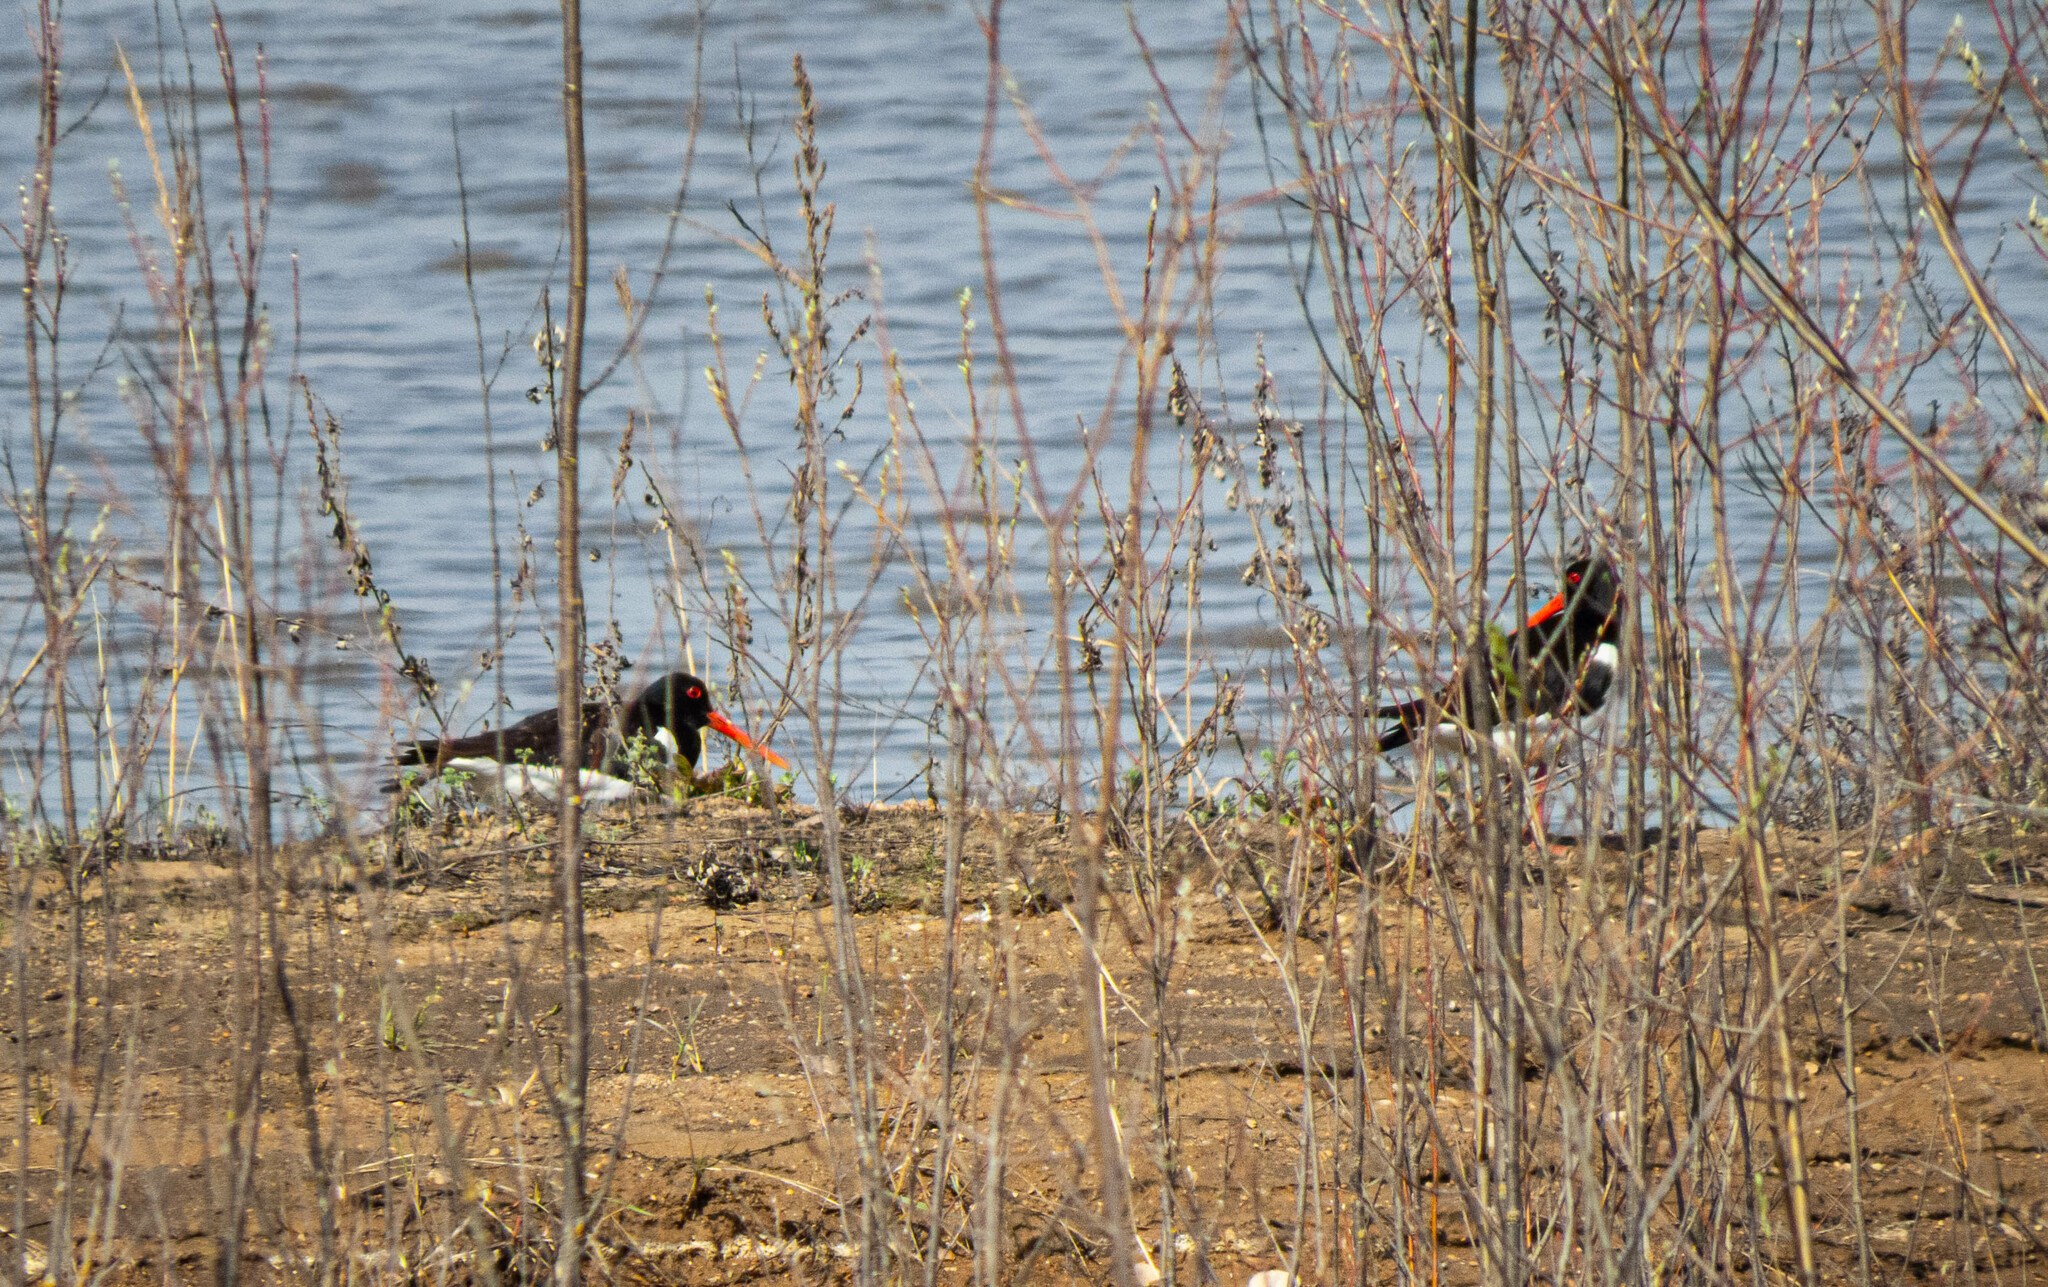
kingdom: Animalia
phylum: Chordata
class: Aves
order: Charadriiformes
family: Haematopodidae
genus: Haematopus
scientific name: Haematopus ostralegus
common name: Eurasian oystercatcher
